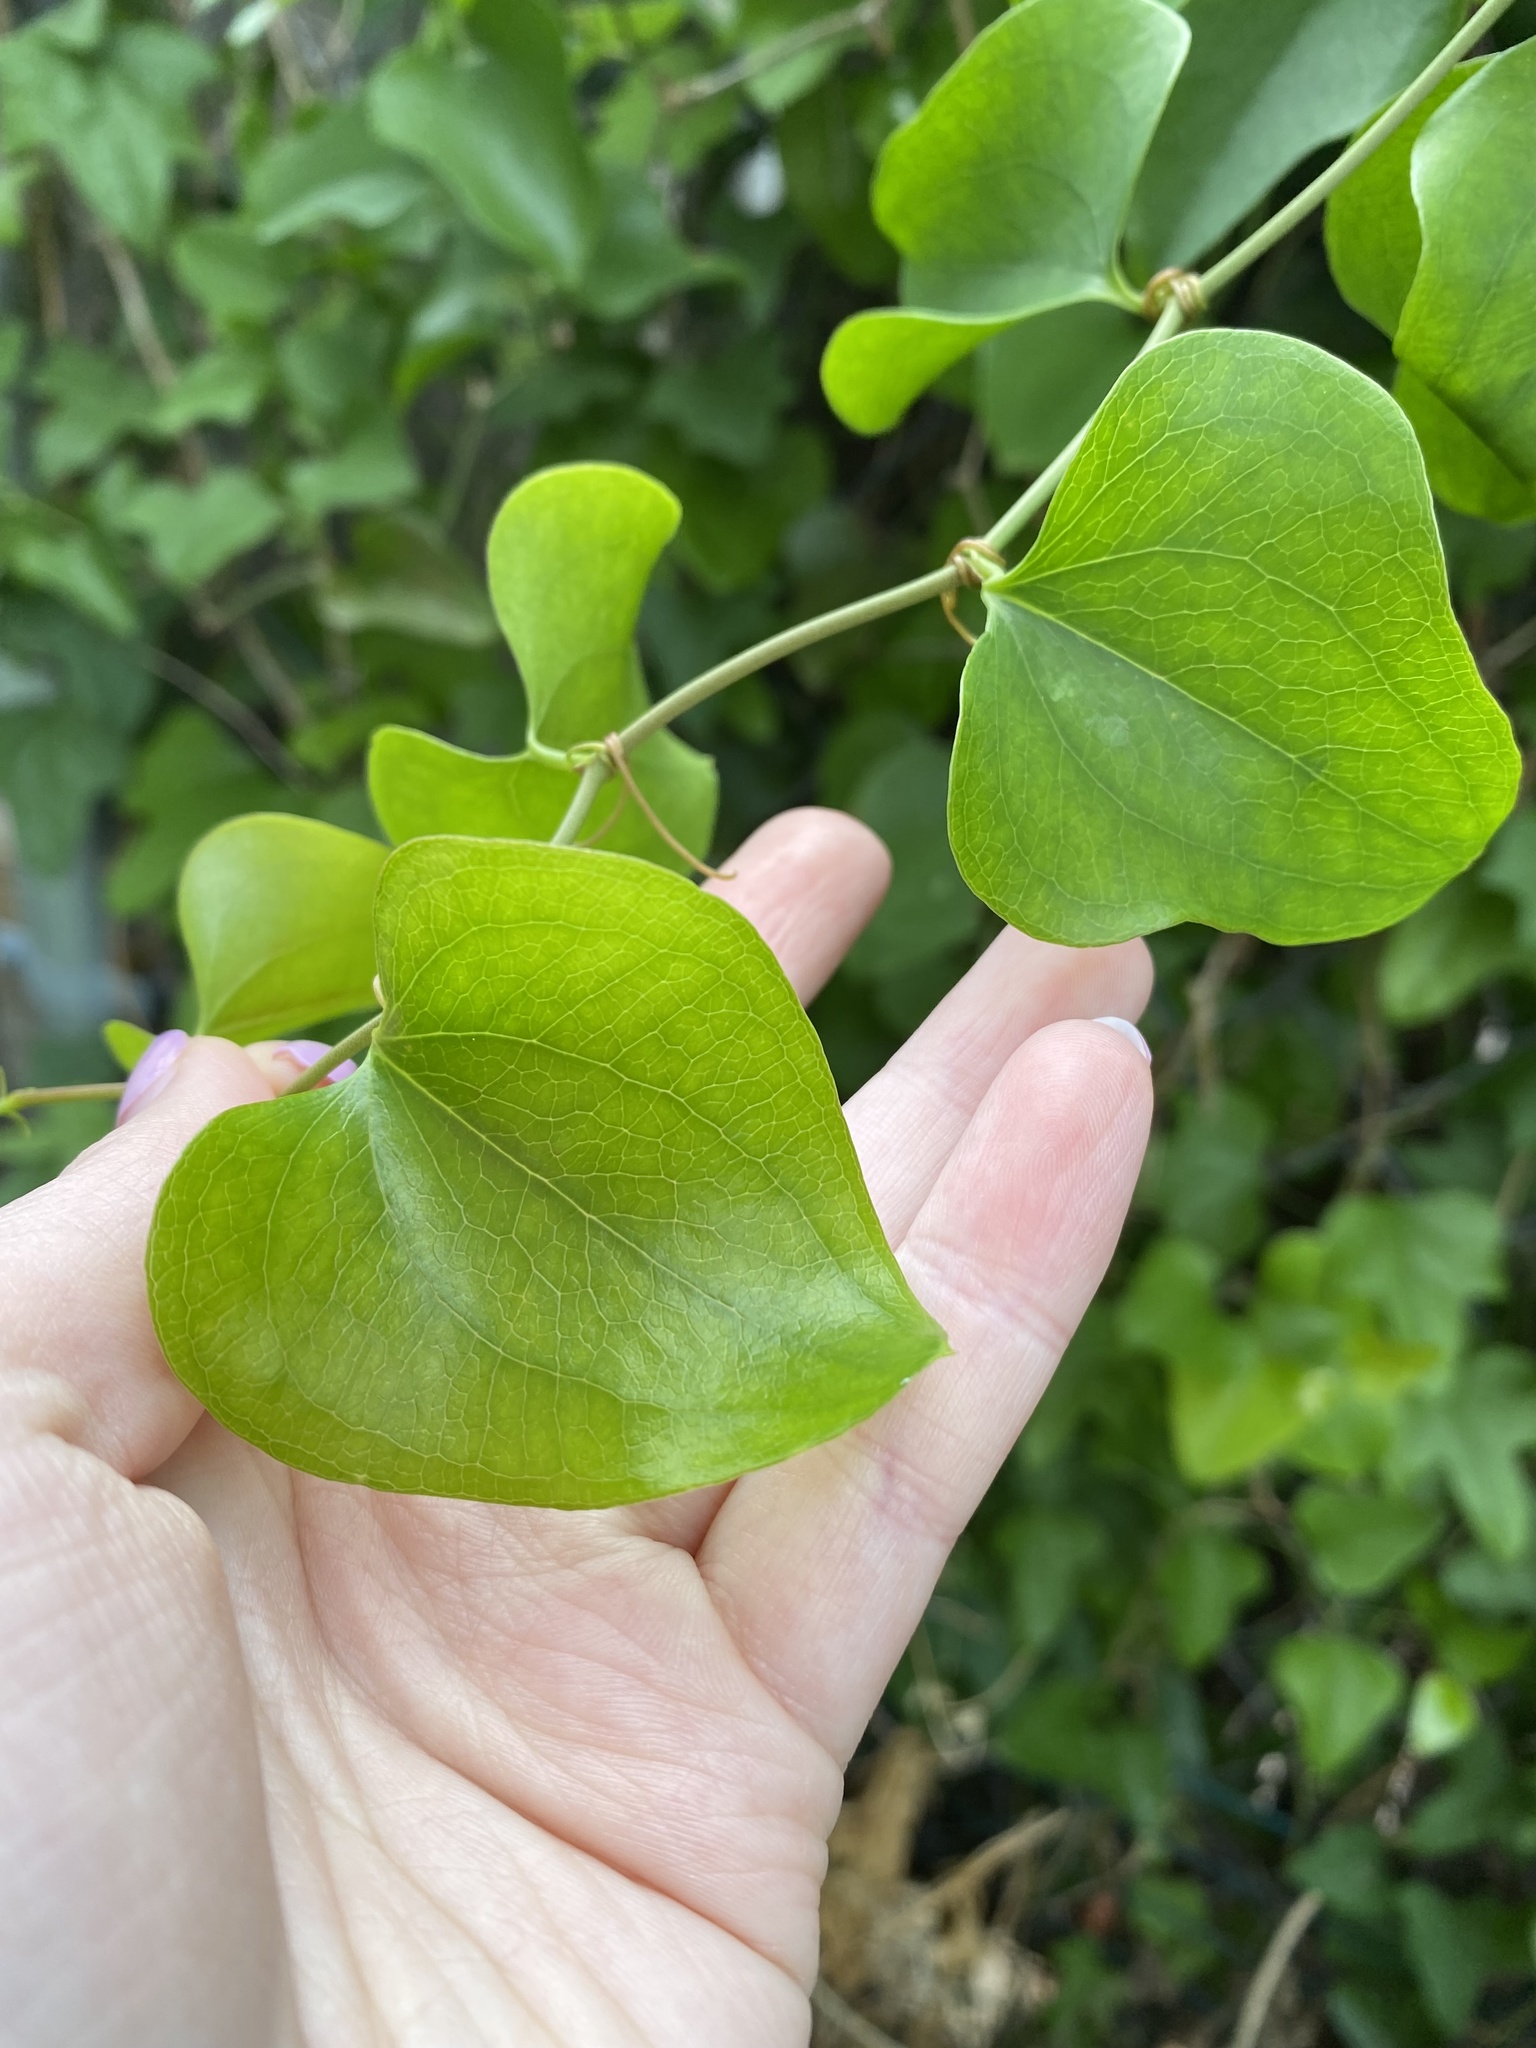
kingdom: Plantae
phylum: Tracheophyta
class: Liliopsida
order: Liliales
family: Smilacaceae
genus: Smilax
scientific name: Smilax bona-nox
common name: Catbrier
